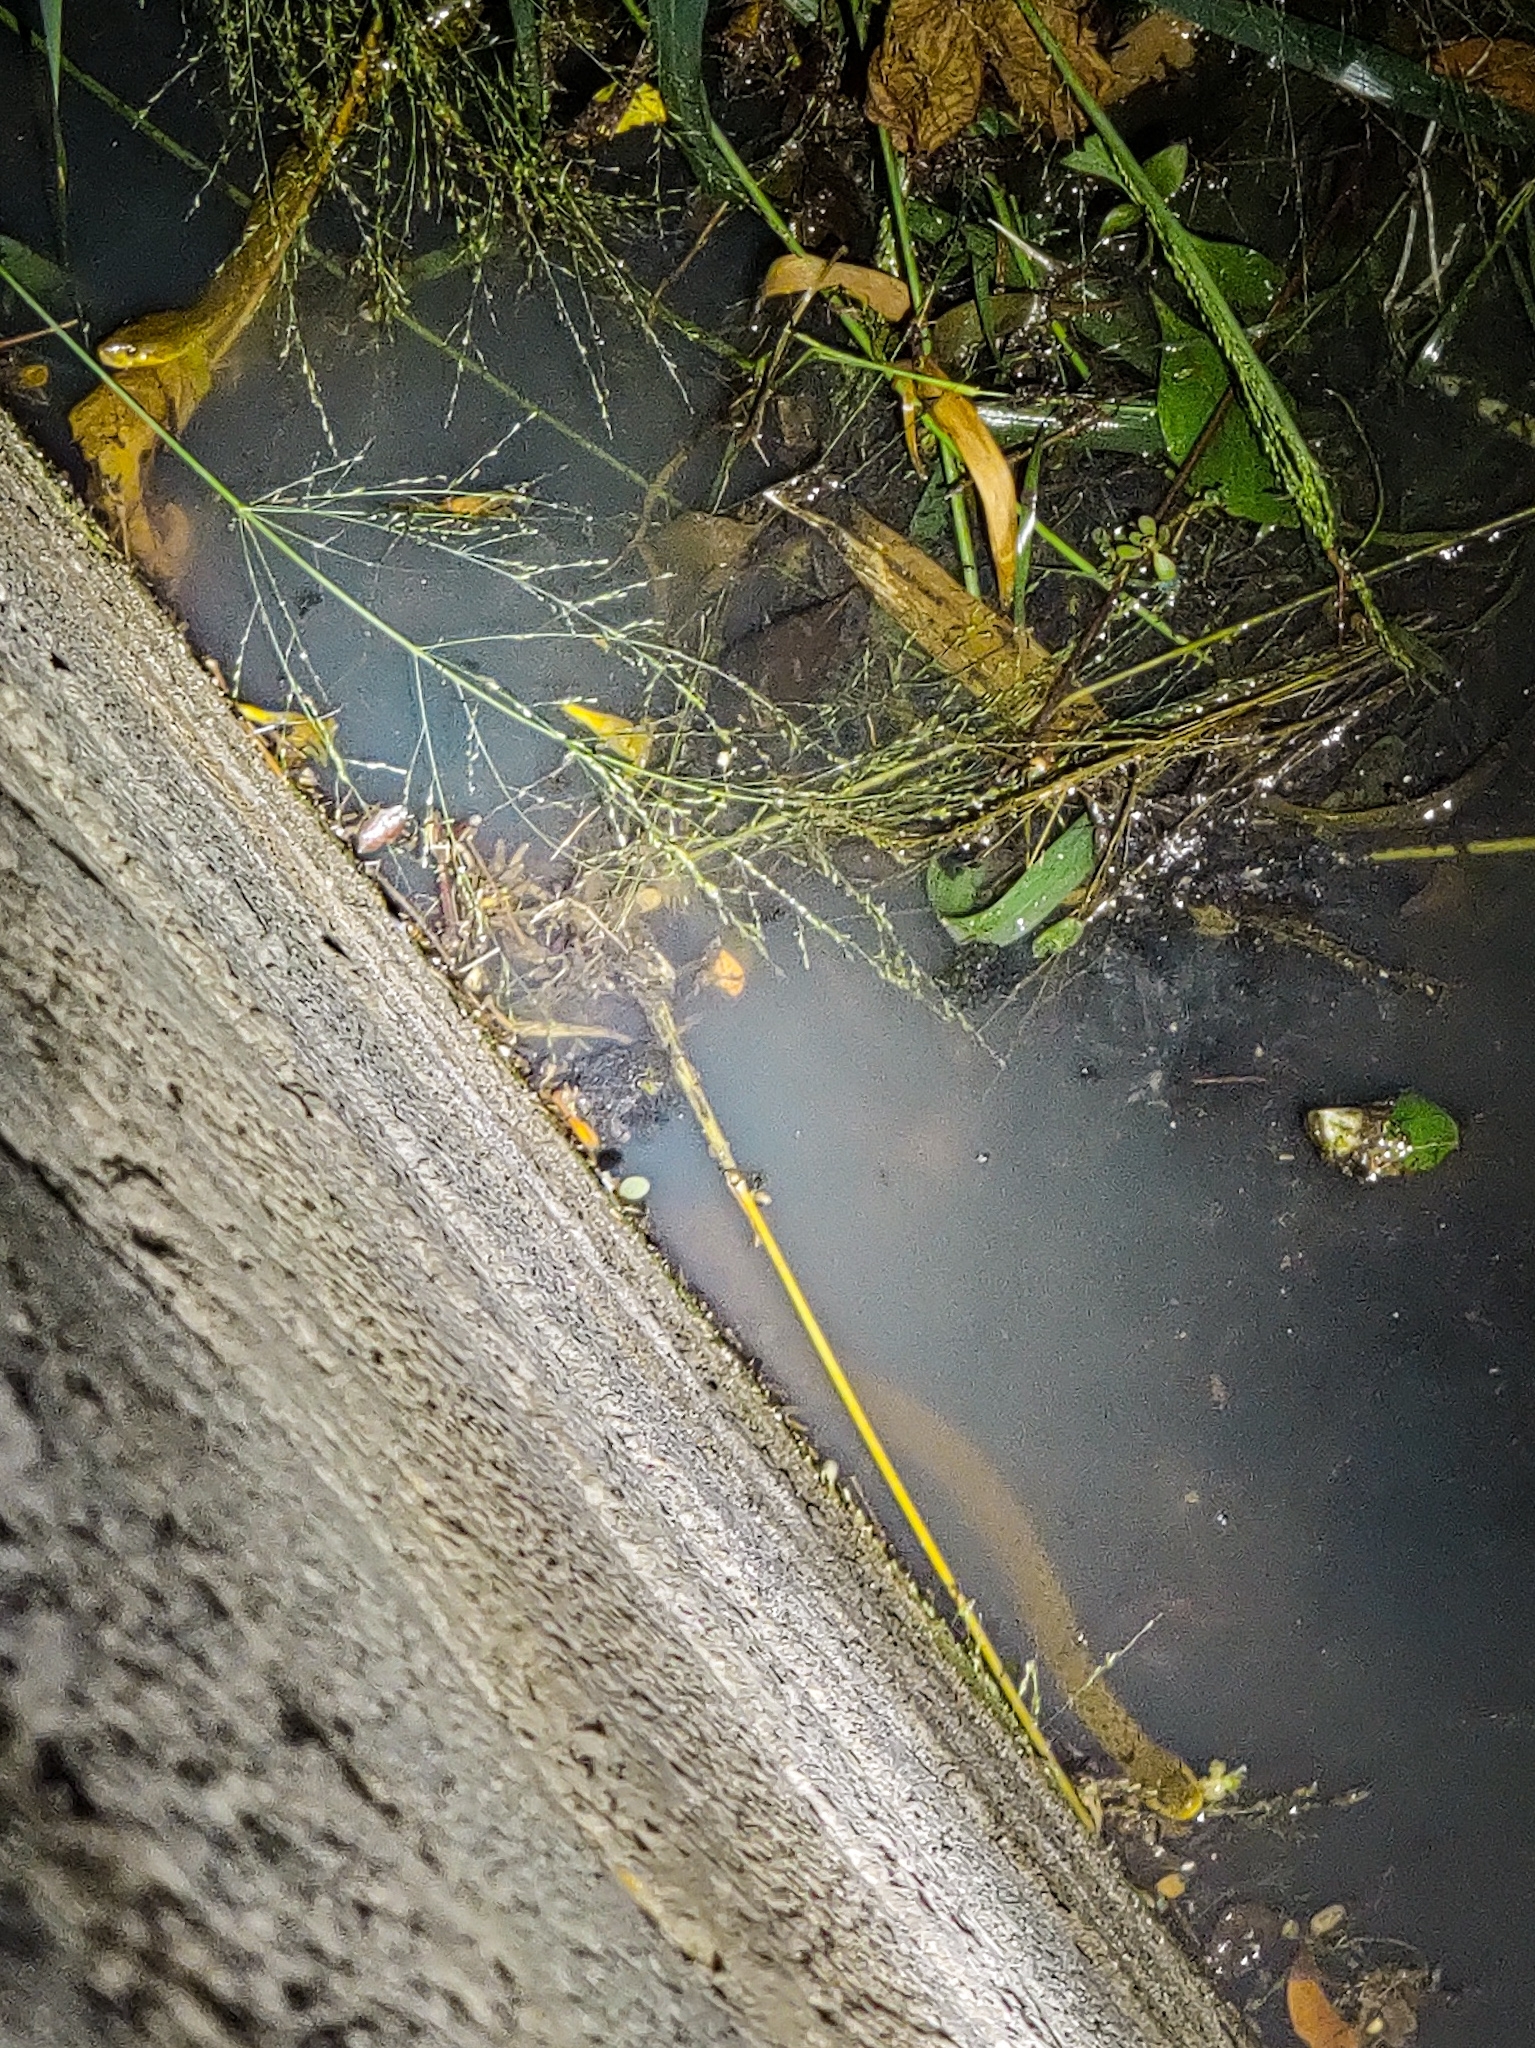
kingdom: Animalia
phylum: Chordata
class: Squamata
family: Colubridae
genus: Fowlea
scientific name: Fowlea piscator
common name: Asiatic water snake
